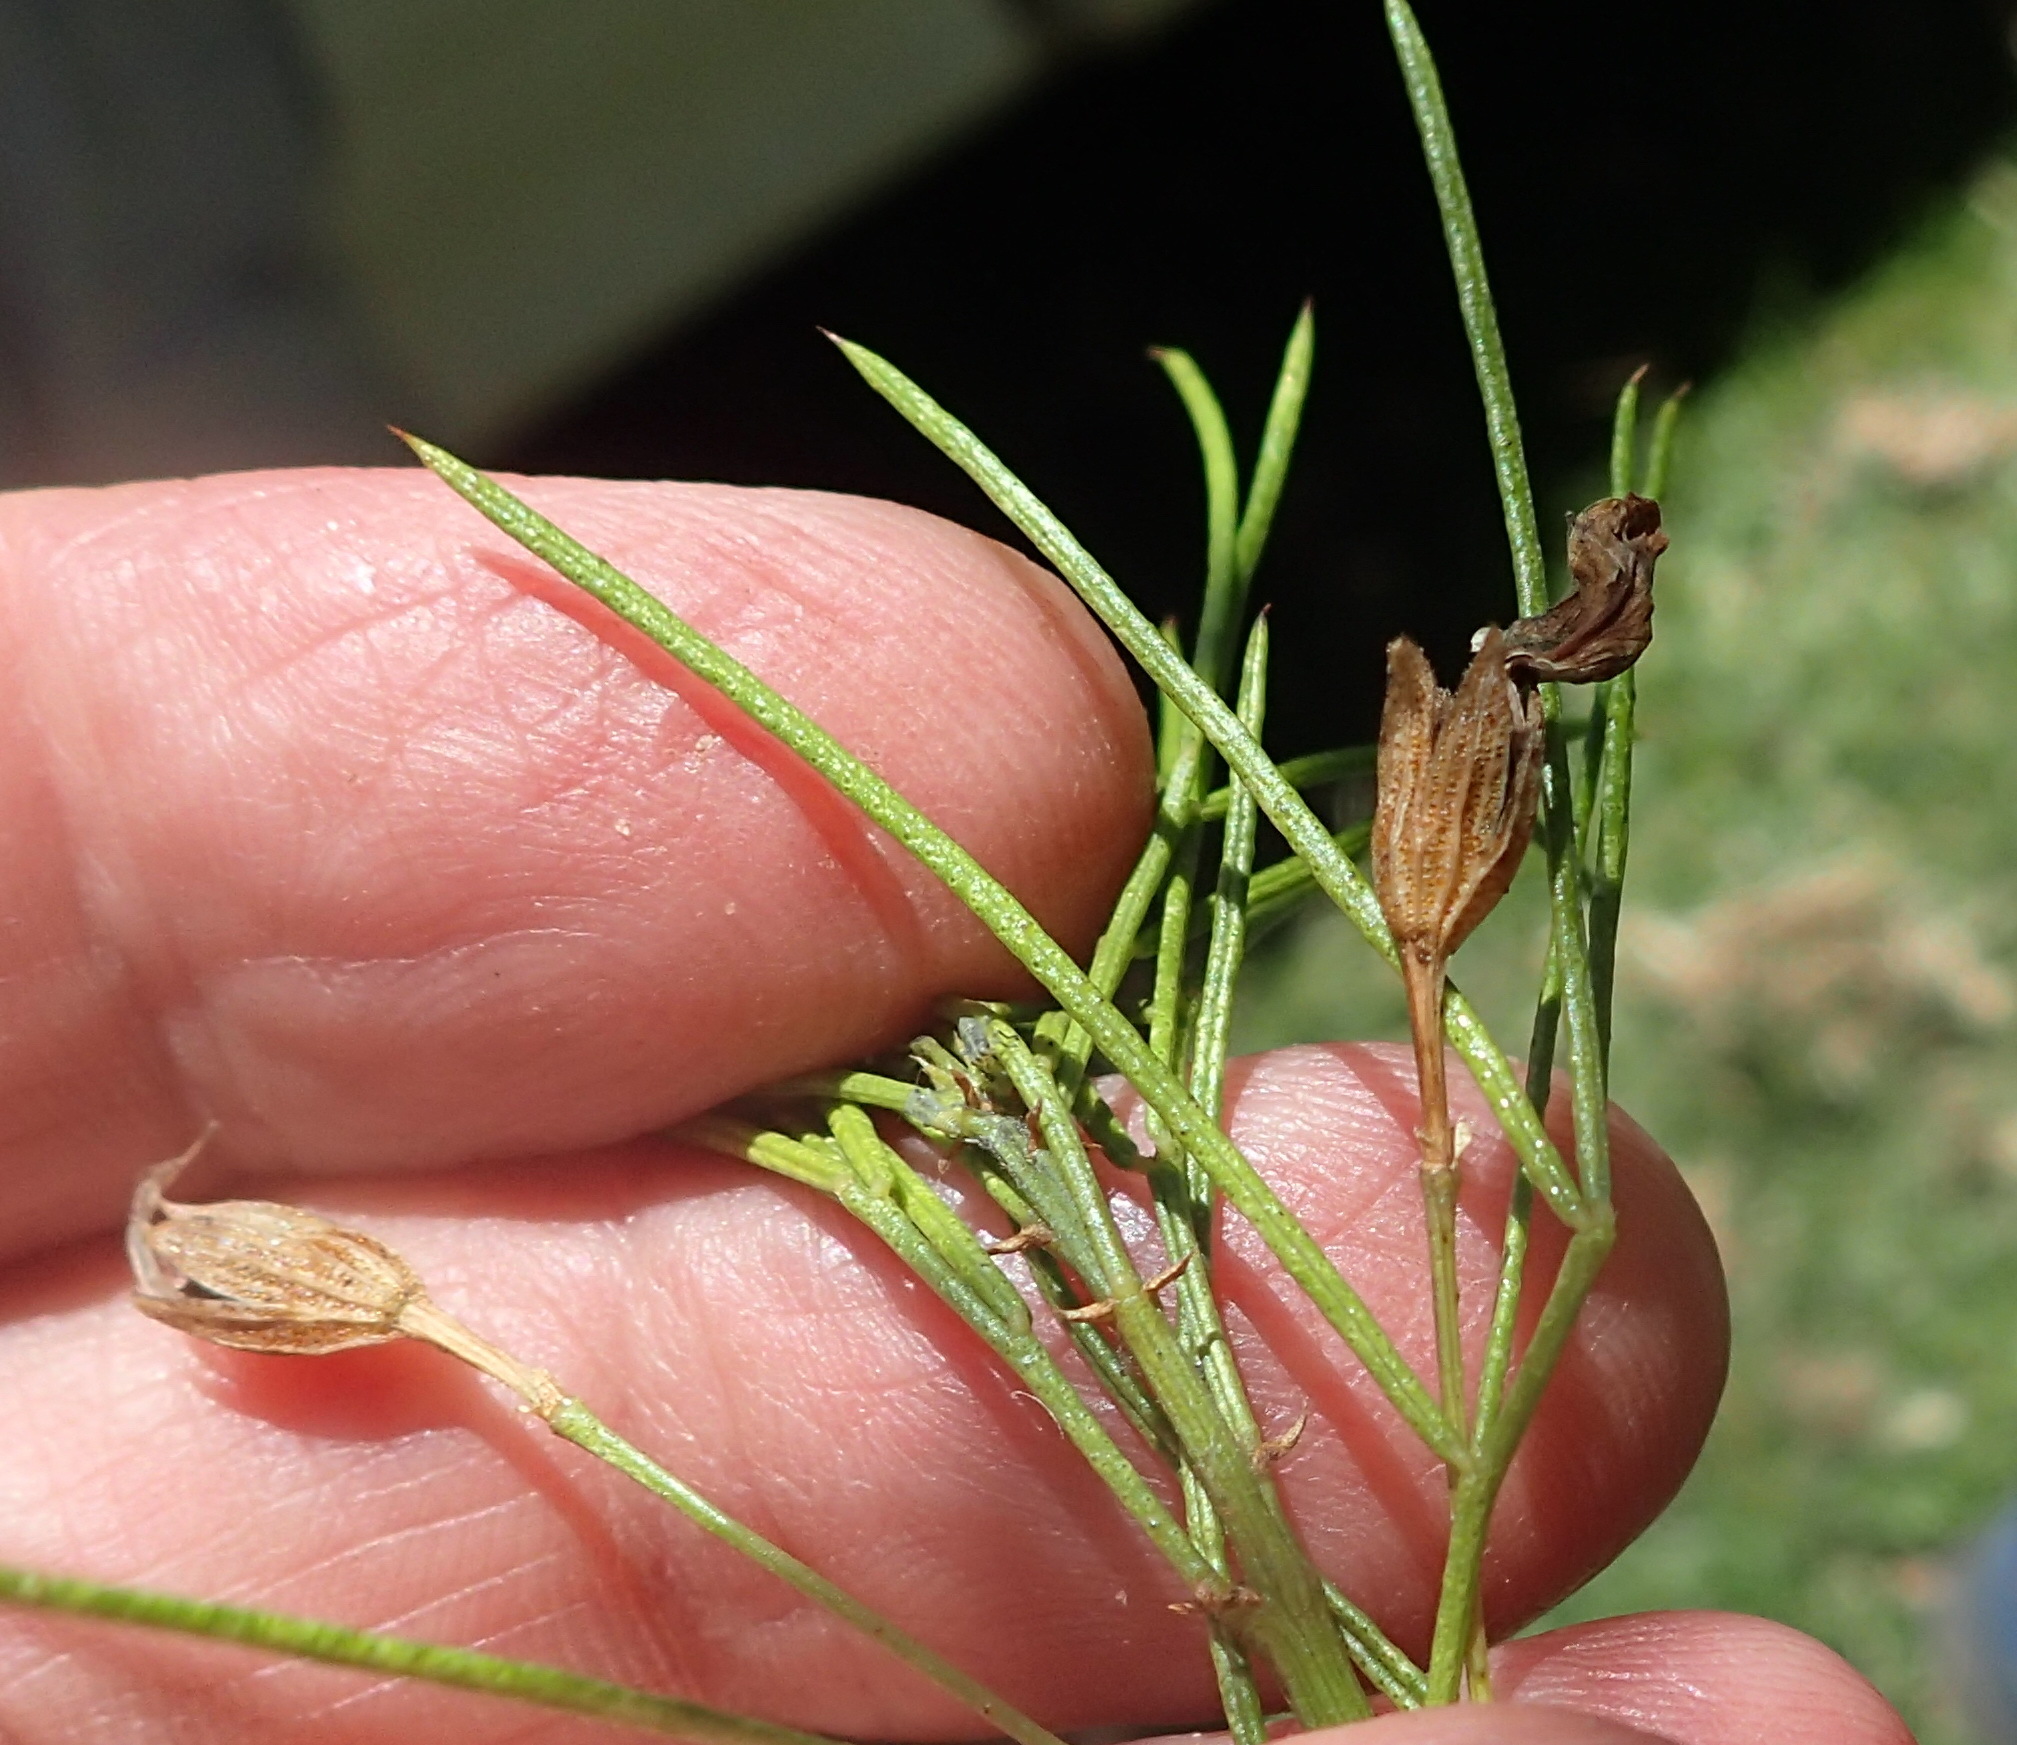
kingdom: Plantae
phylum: Tracheophyta
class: Magnoliopsida
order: Fabales
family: Fabaceae
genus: Psoralea
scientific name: Psoralea imminens
